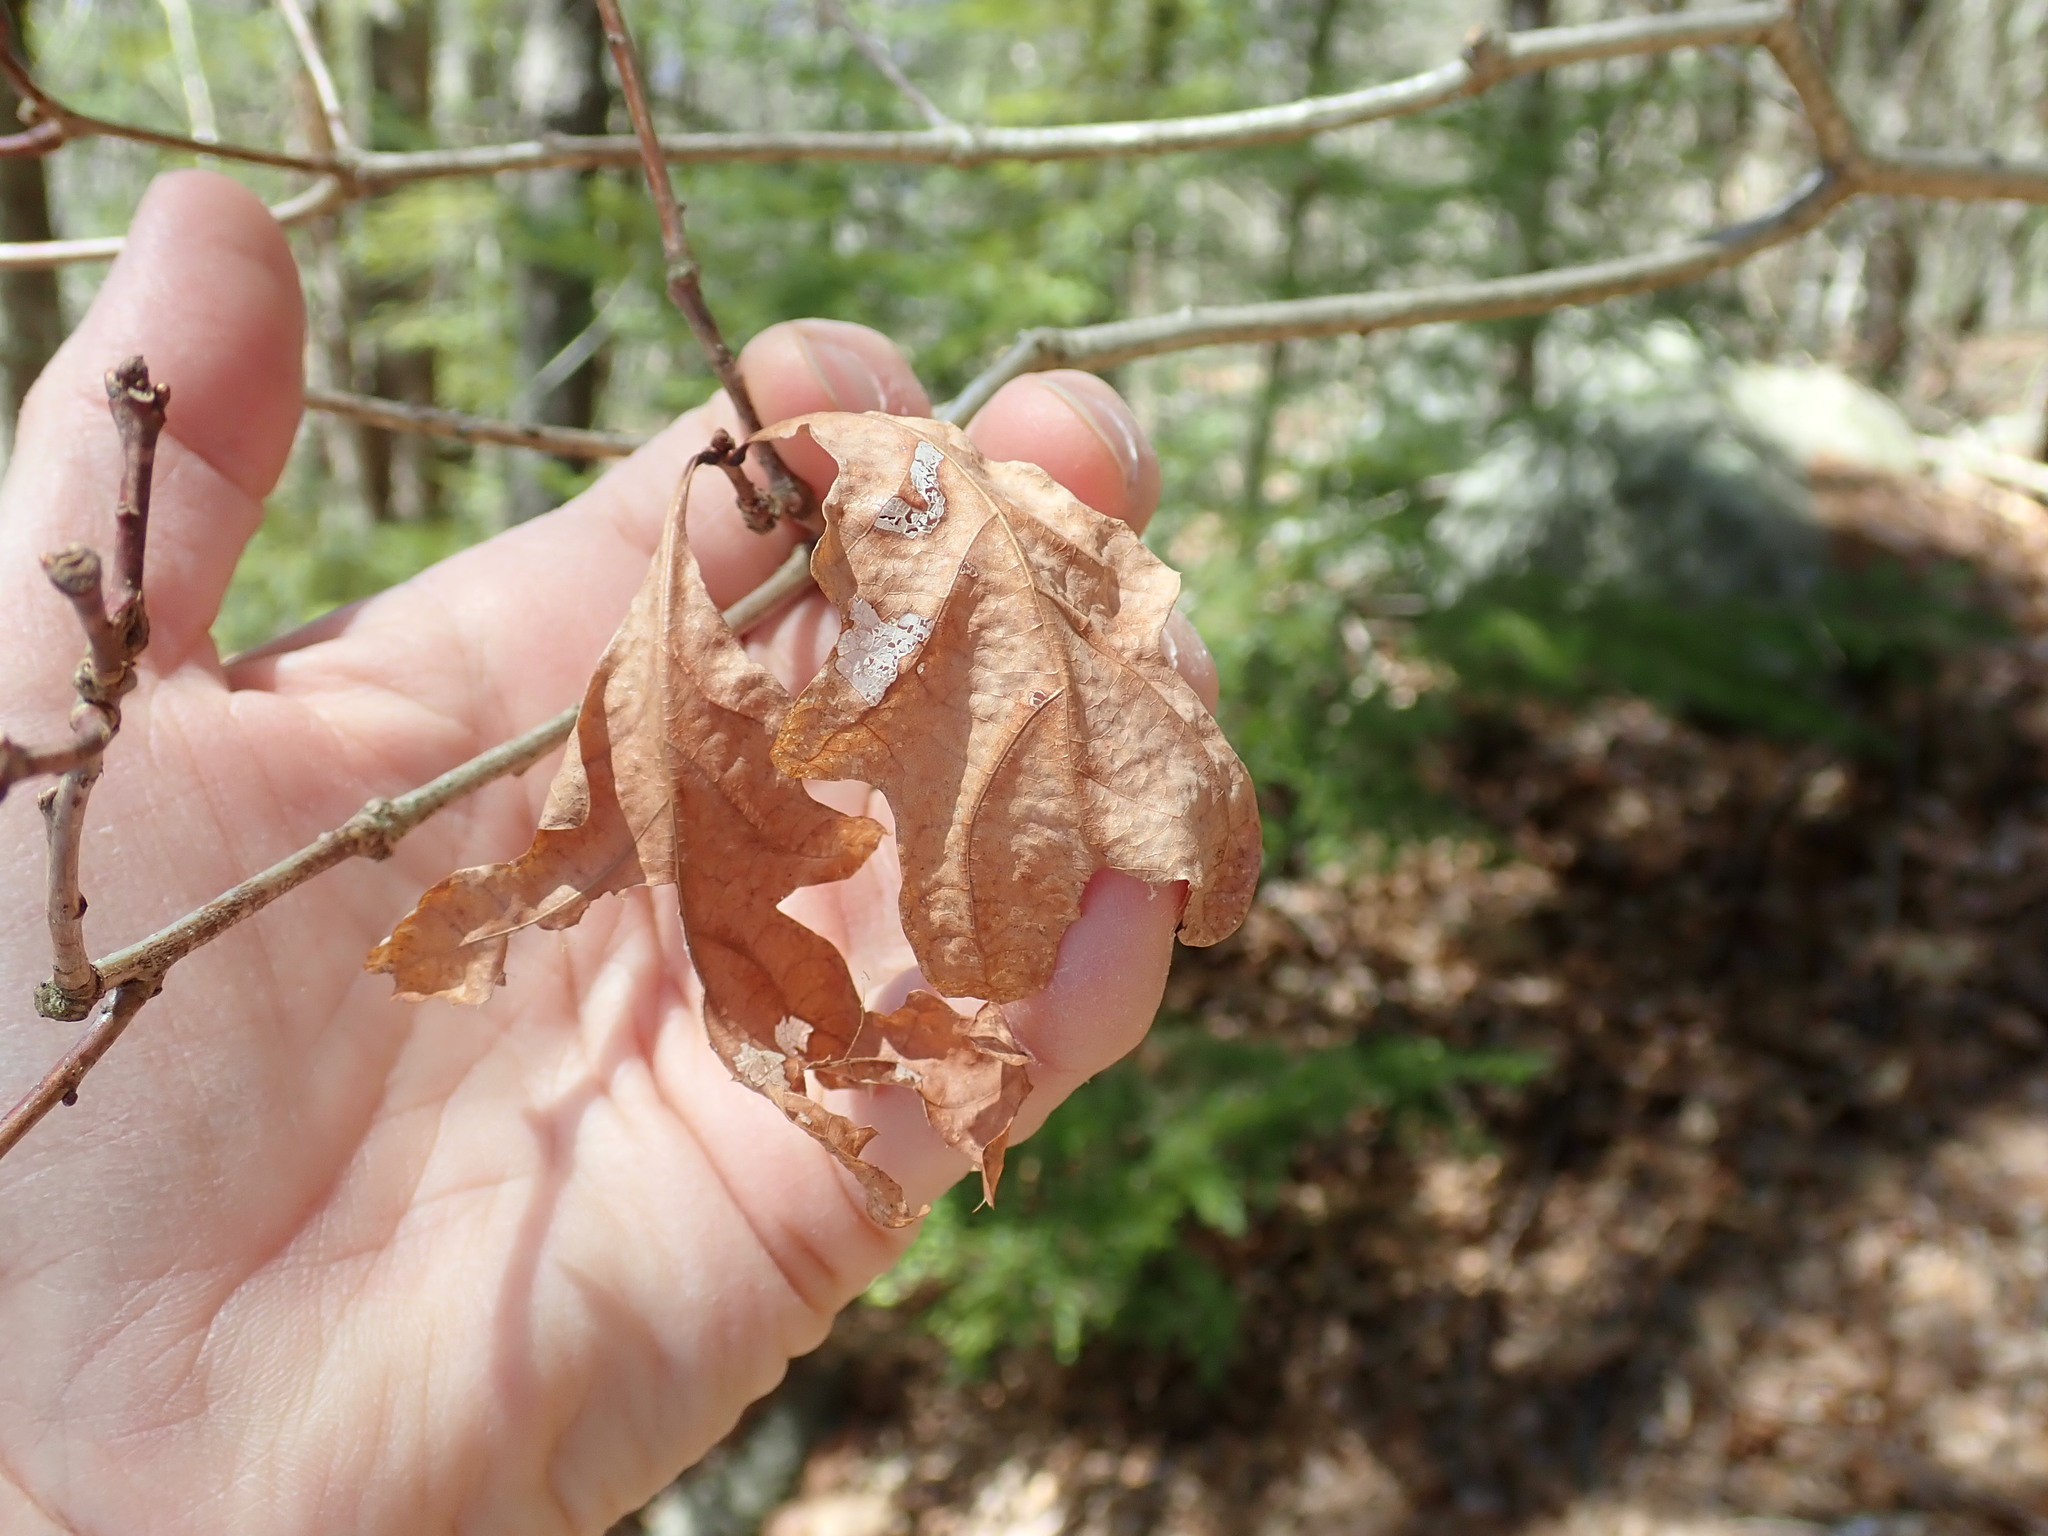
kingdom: Plantae
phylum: Tracheophyta
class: Magnoliopsida
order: Fagales
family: Fagaceae
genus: Quercus
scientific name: Quercus alba
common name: White oak
